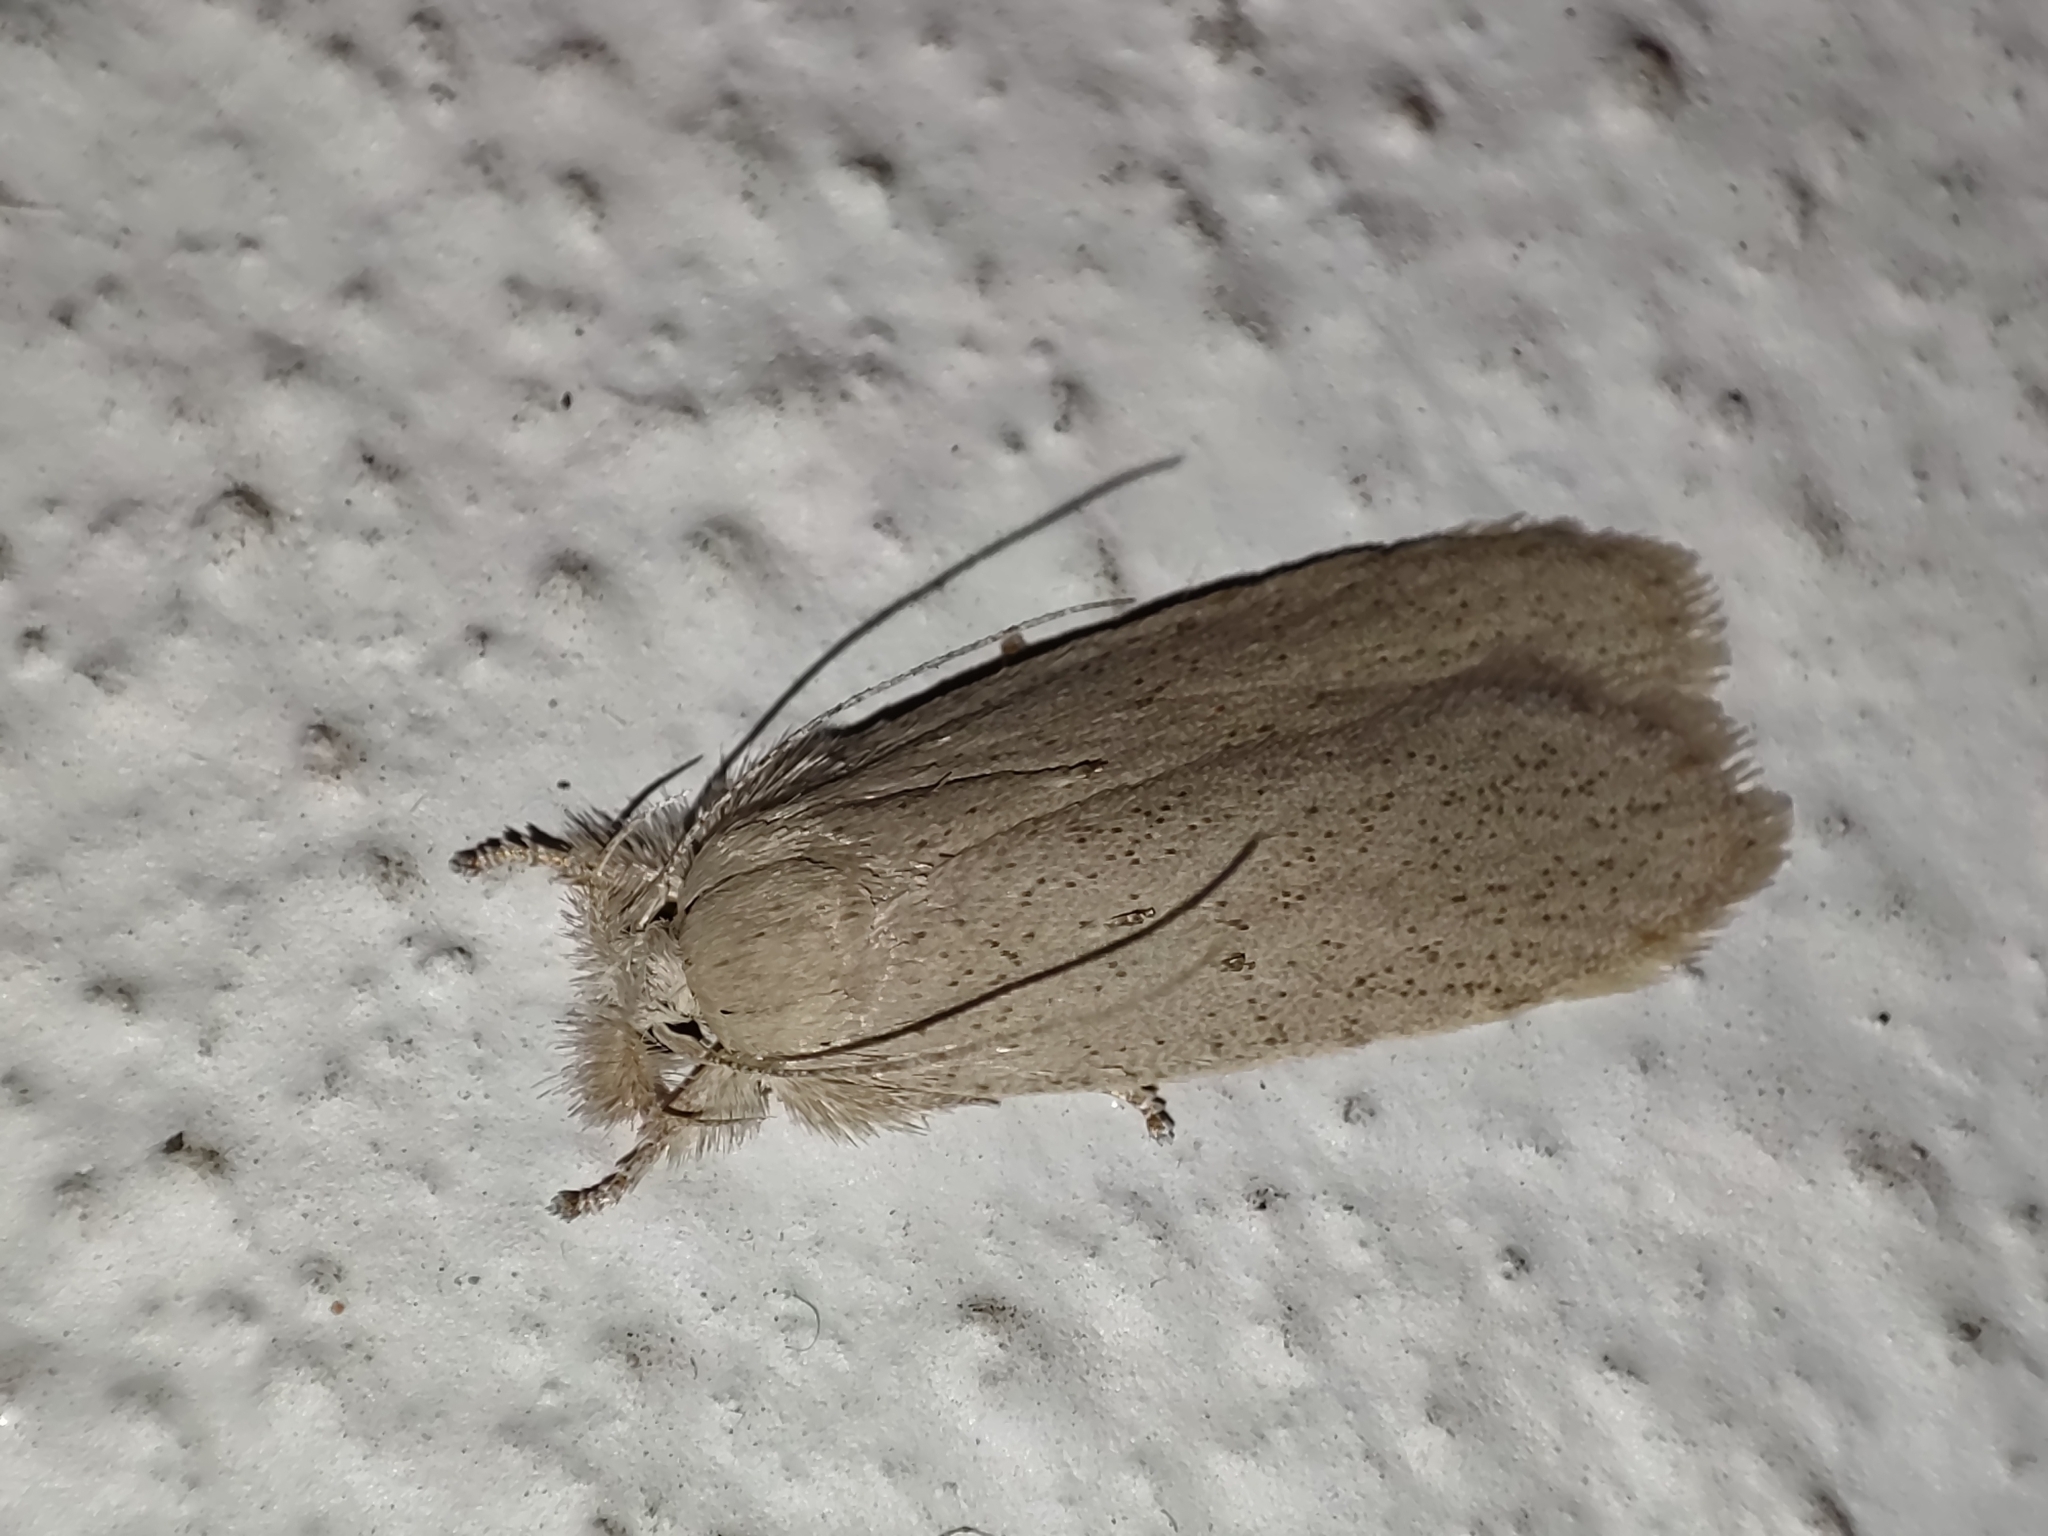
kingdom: Animalia
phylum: Arthropoda
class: Insecta
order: Lepidoptera
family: Xyloryctidae
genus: Opisina
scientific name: Opisina arenosella
